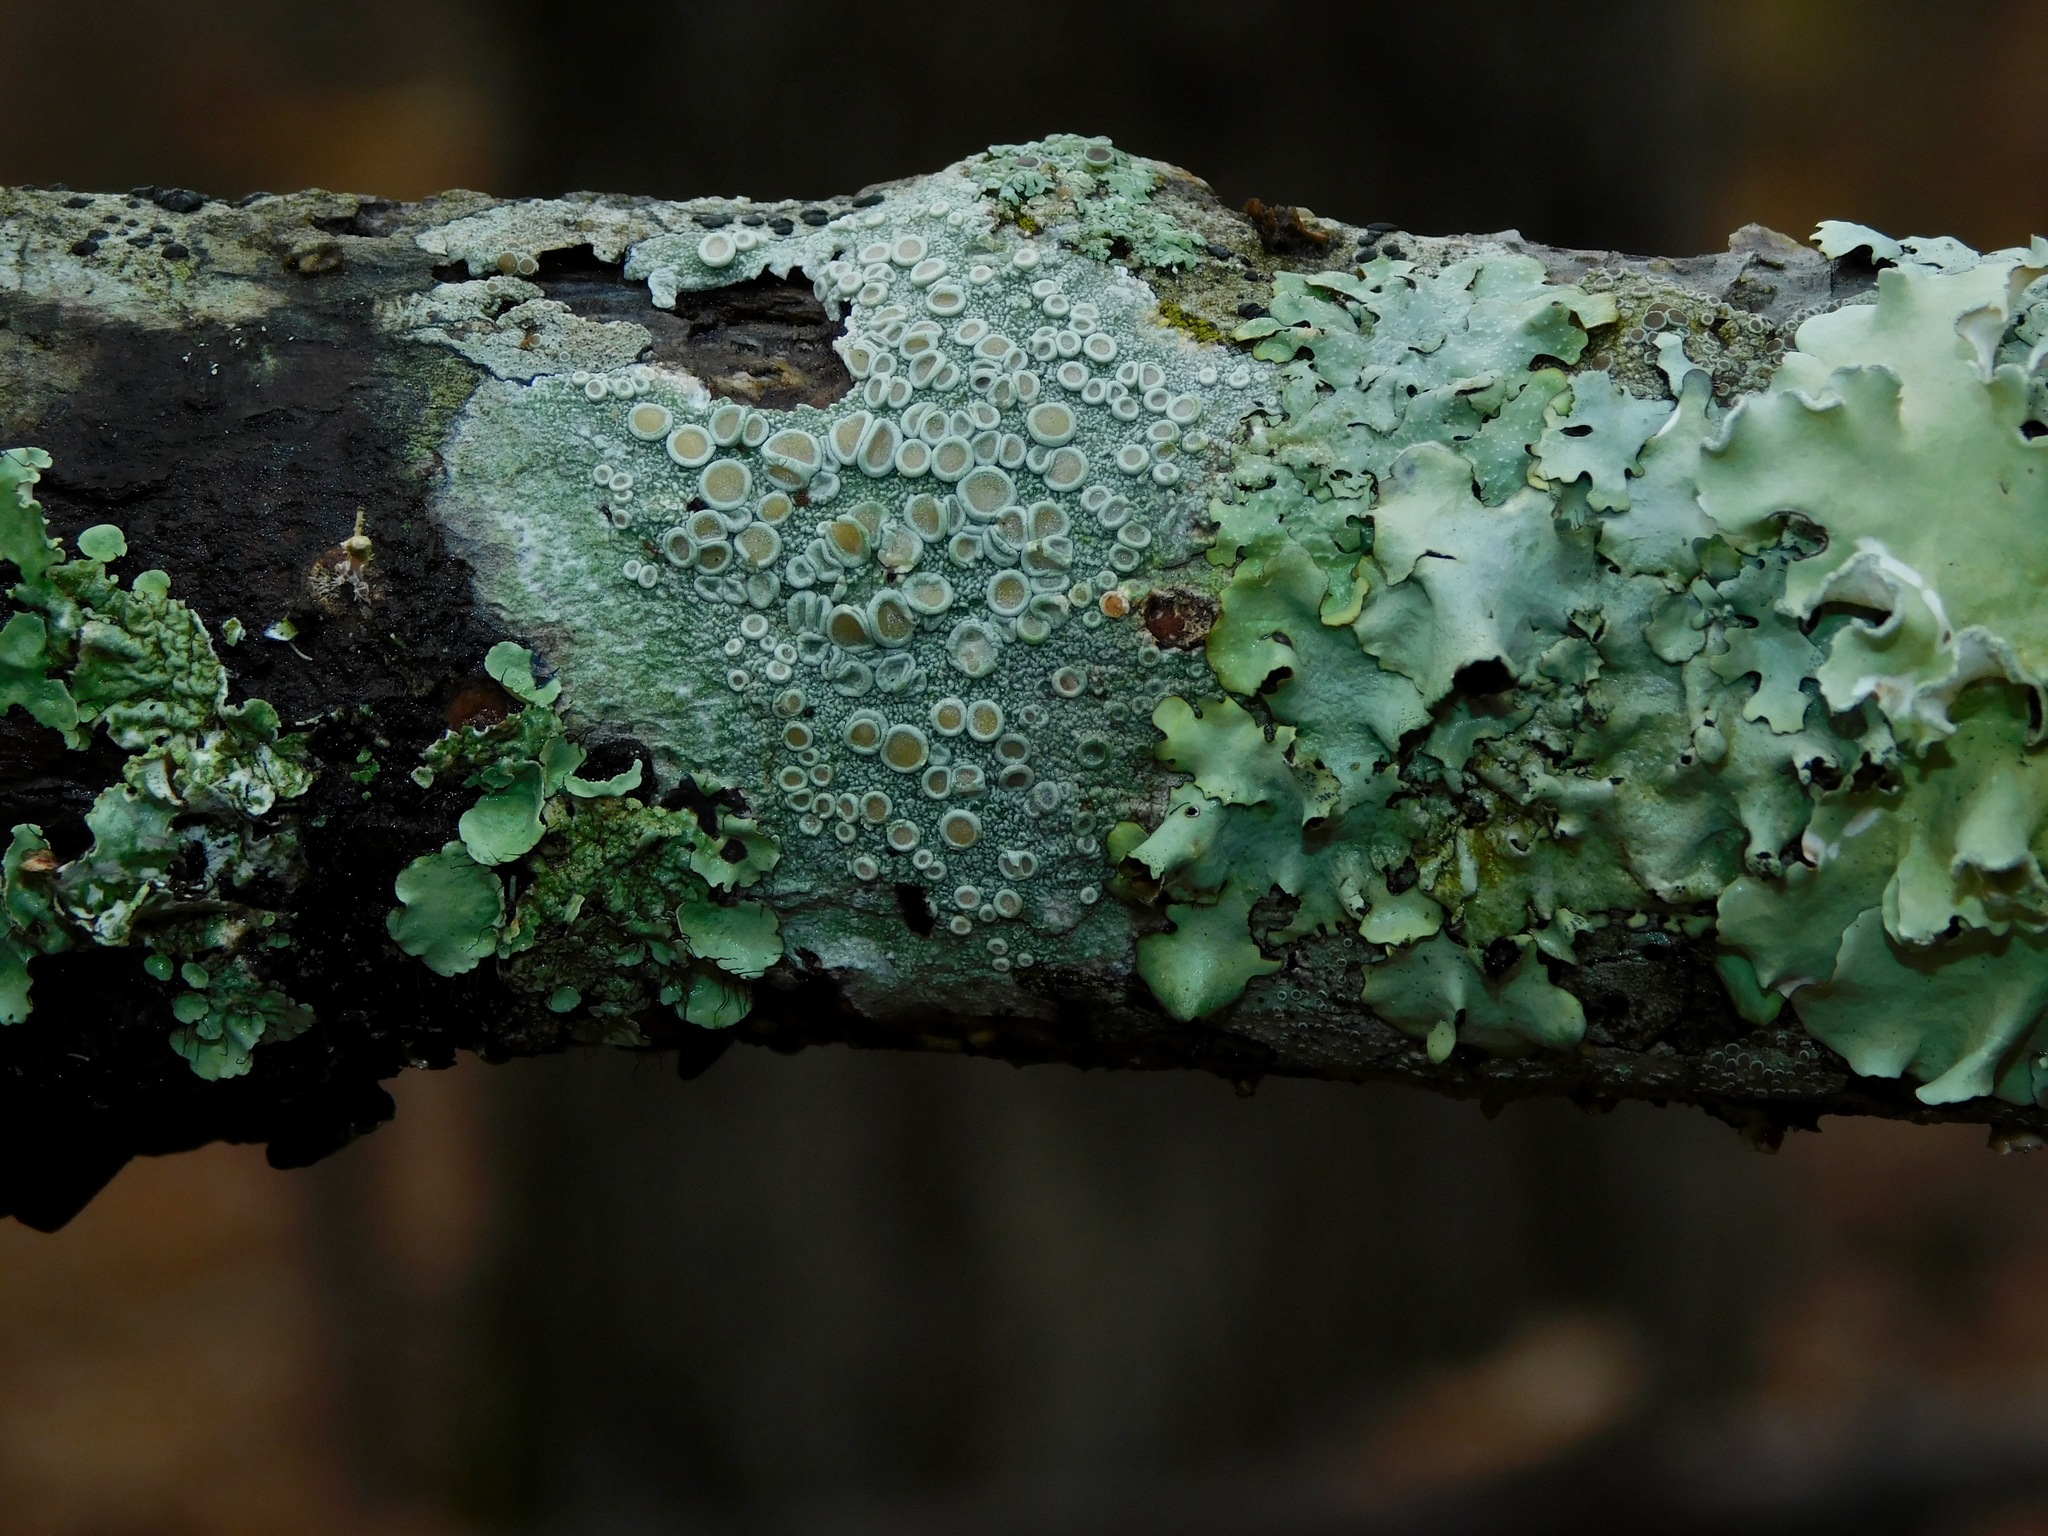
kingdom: Fungi
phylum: Ascomycota
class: Lecanoromycetes
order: Pertusariales
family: Ochrolechiaceae
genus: Ochrolechia
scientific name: Ochrolechia africana
